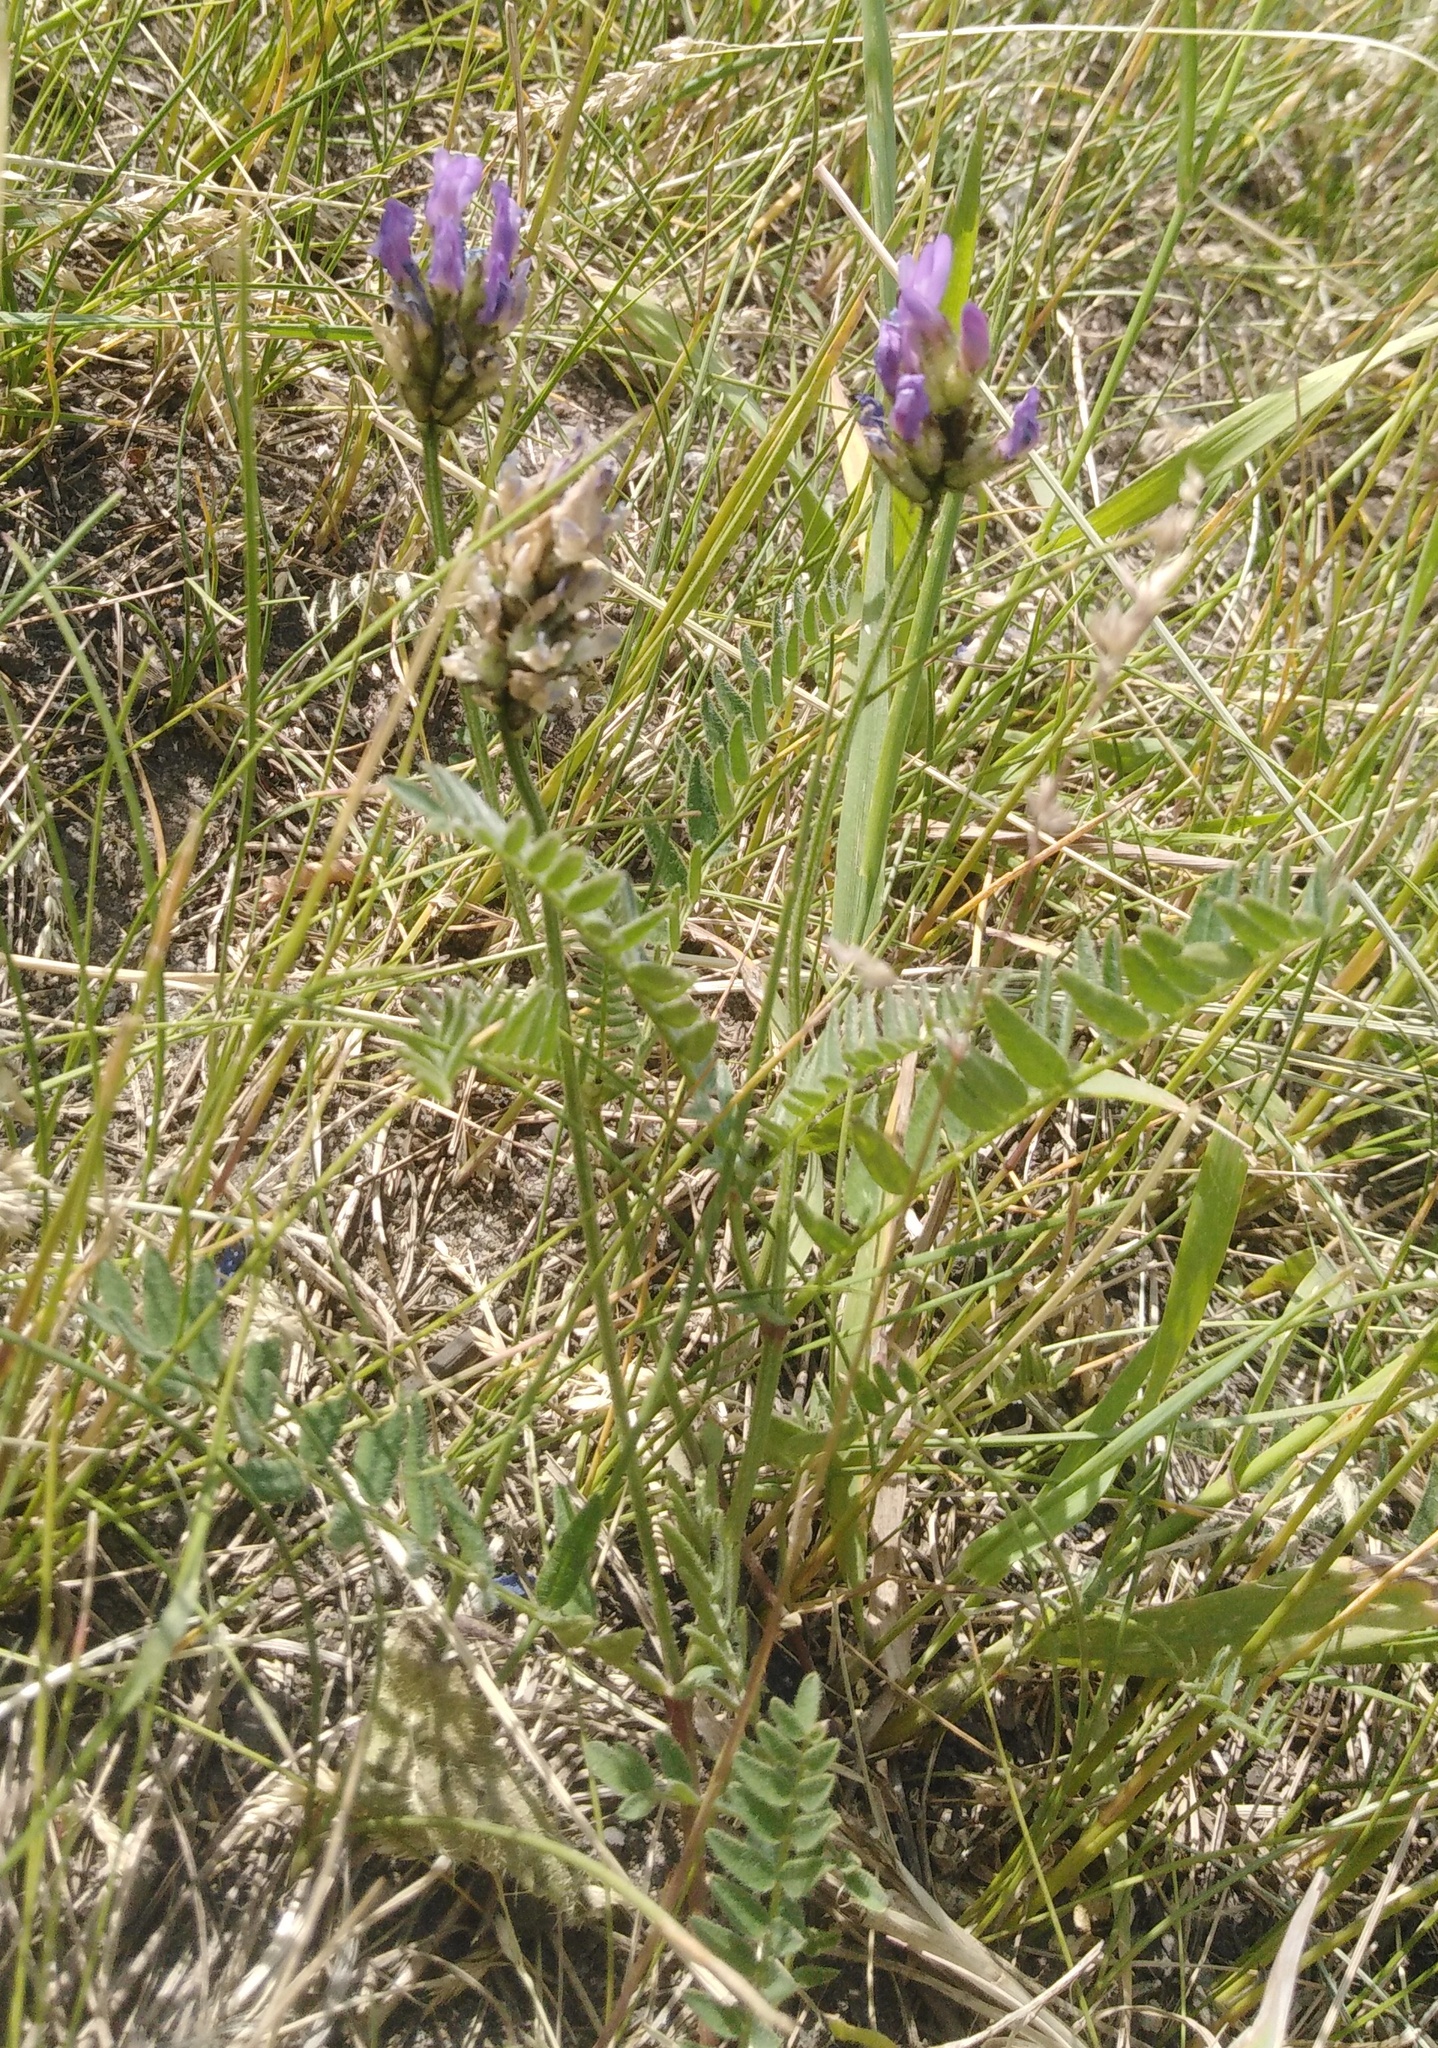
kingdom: Plantae
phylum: Tracheophyta
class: Magnoliopsida
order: Fabales
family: Fabaceae
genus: Astragalus
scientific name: Astragalus danicus
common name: Purple milk-vetch
